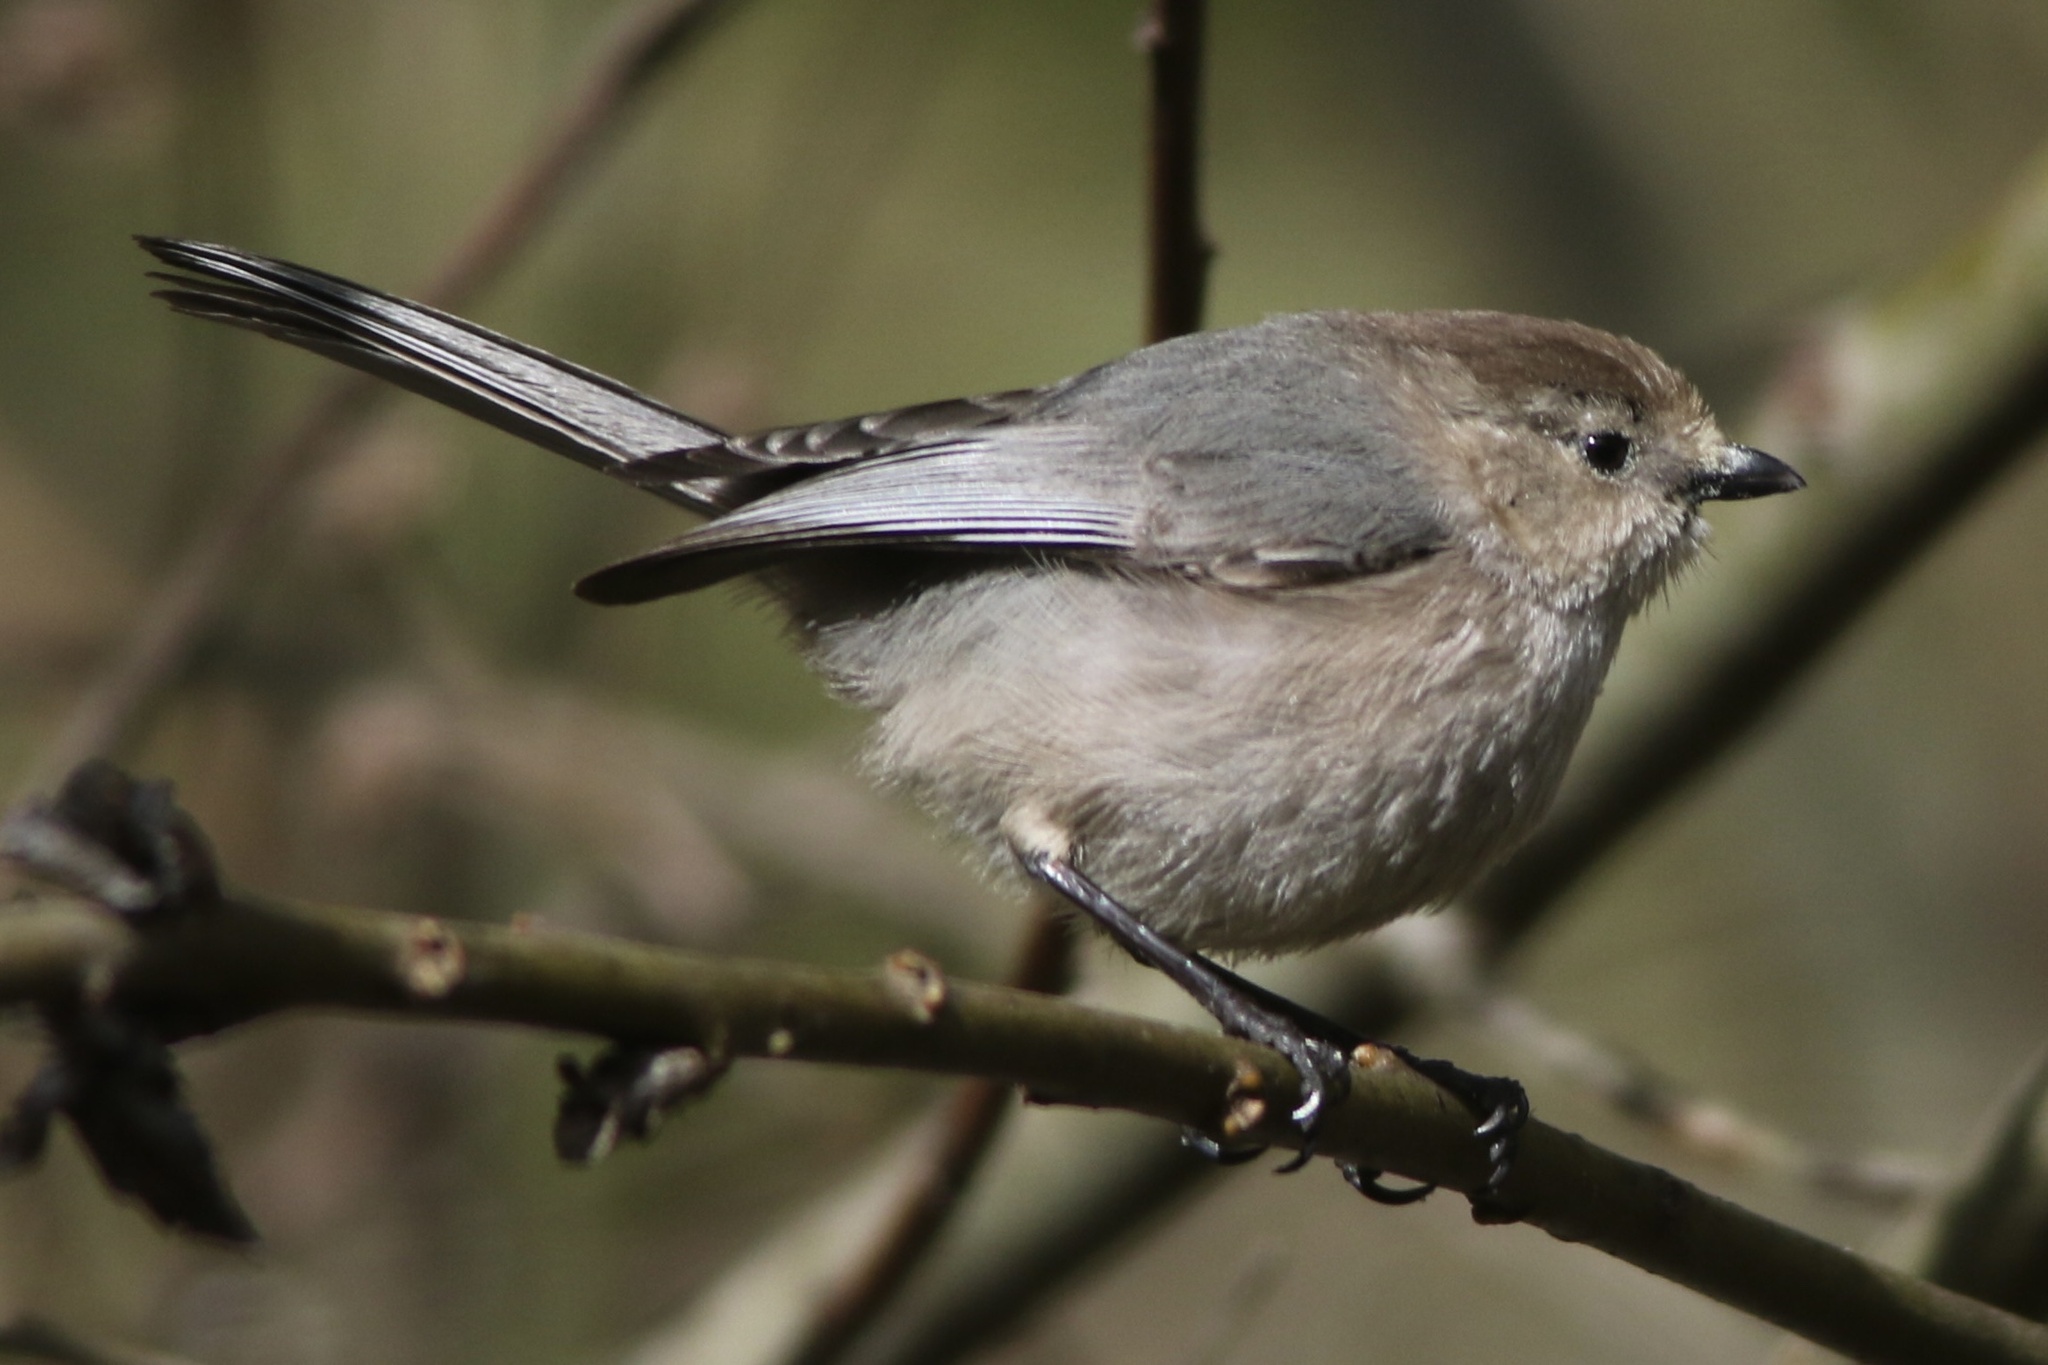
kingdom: Animalia
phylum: Chordata
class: Aves
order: Passeriformes
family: Aegithalidae
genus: Psaltriparus
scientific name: Psaltriparus minimus
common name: American bushtit
